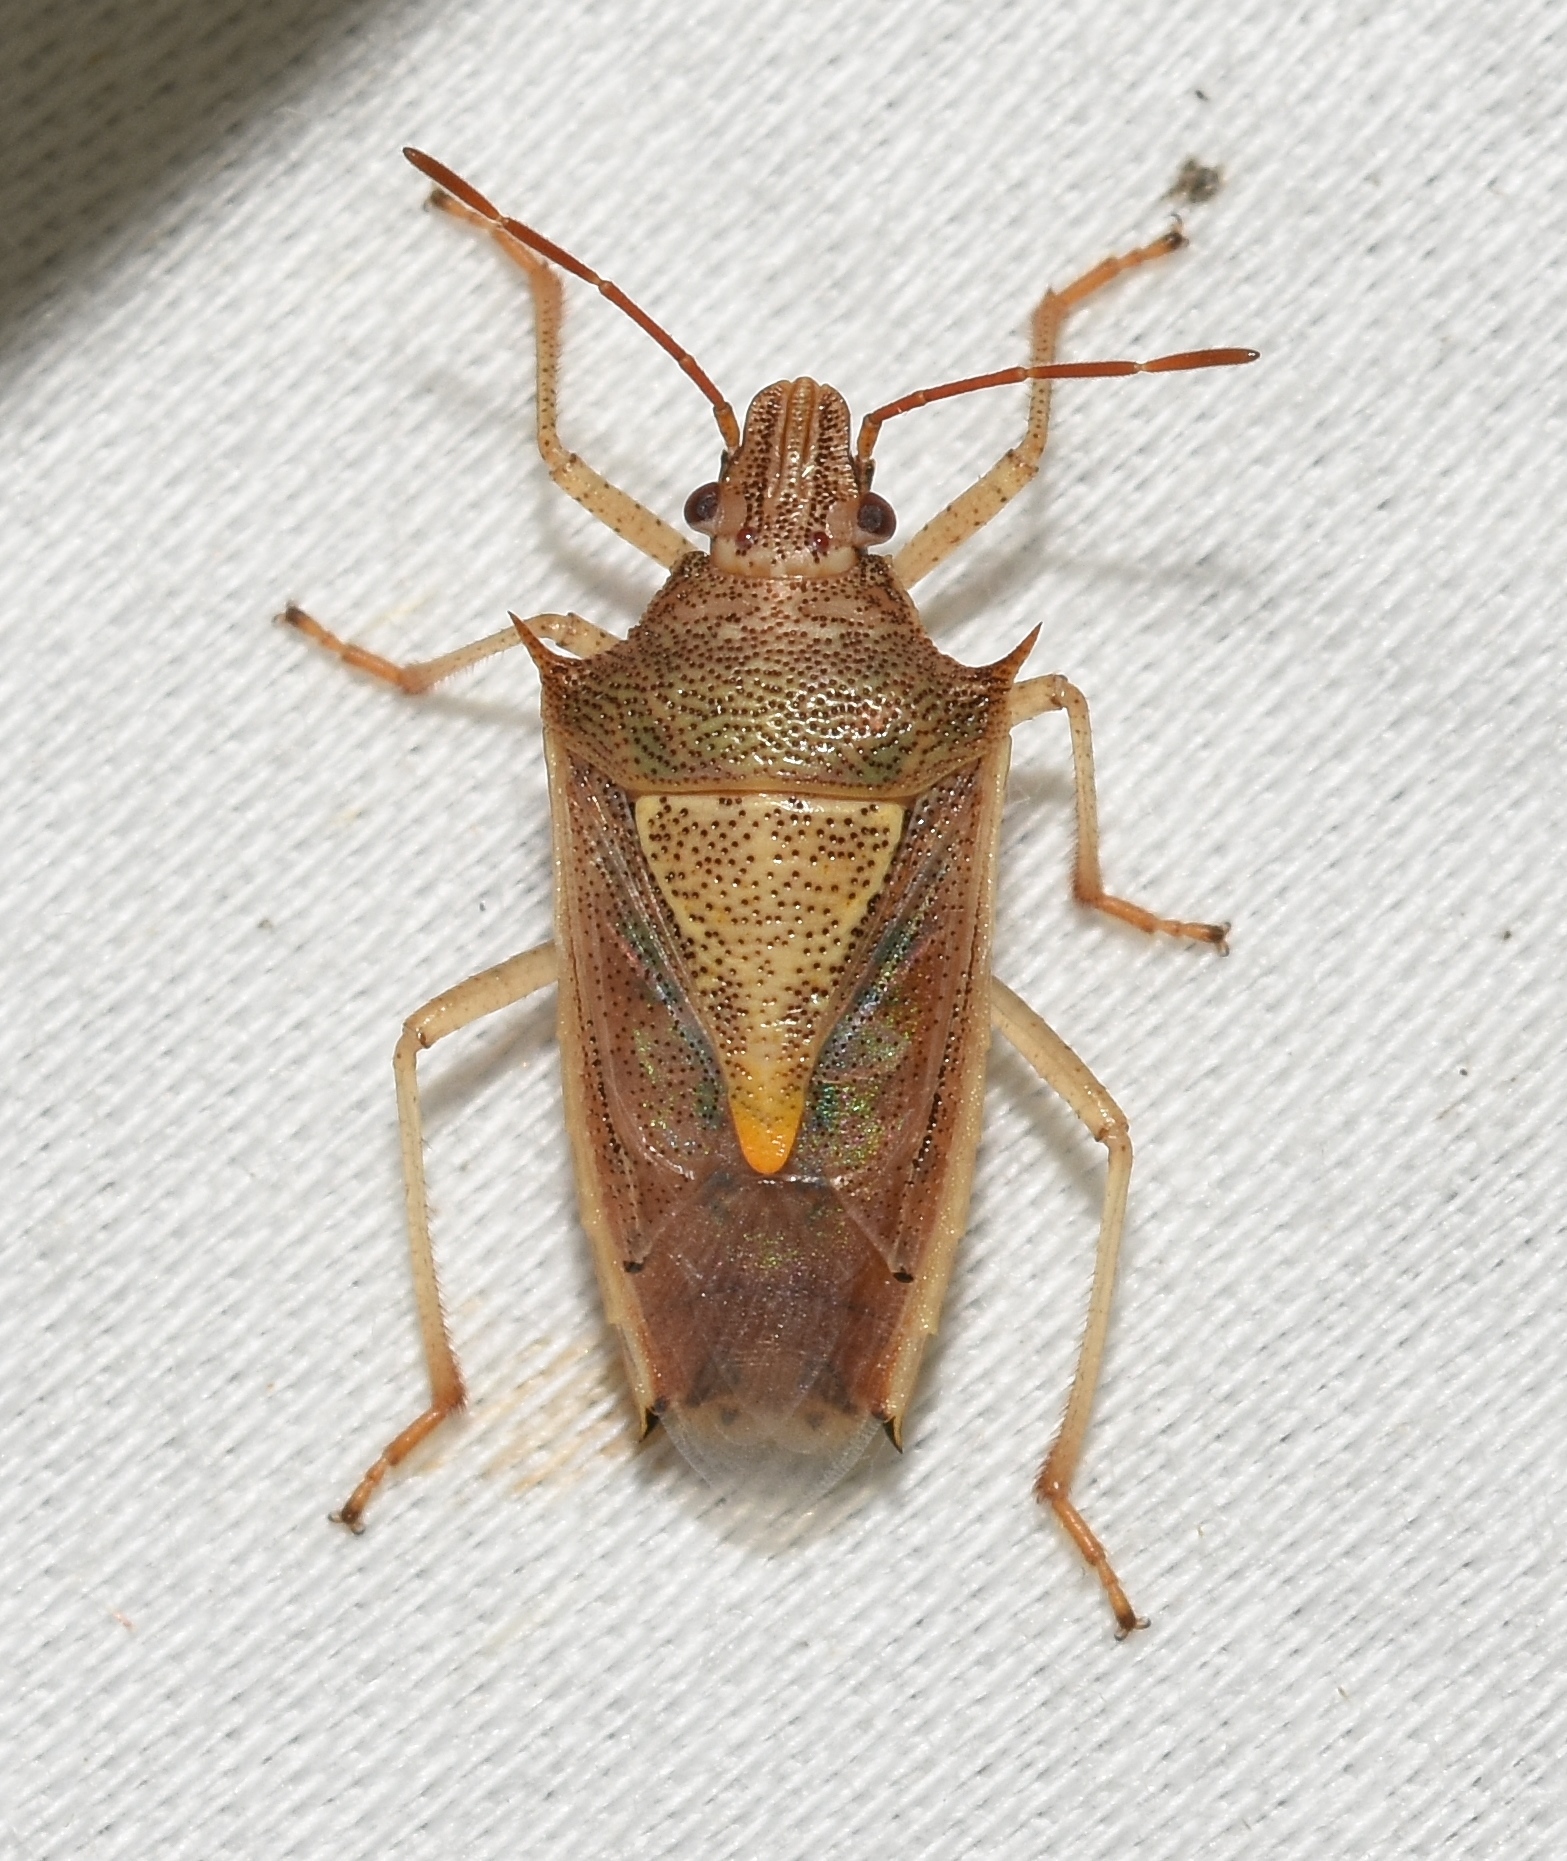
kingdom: Animalia
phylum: Arthropoda
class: Insecta
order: Hemiptera
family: Pentatomidae
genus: Oebalus
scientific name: Oebalus pugnax
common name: Rice stink bug
